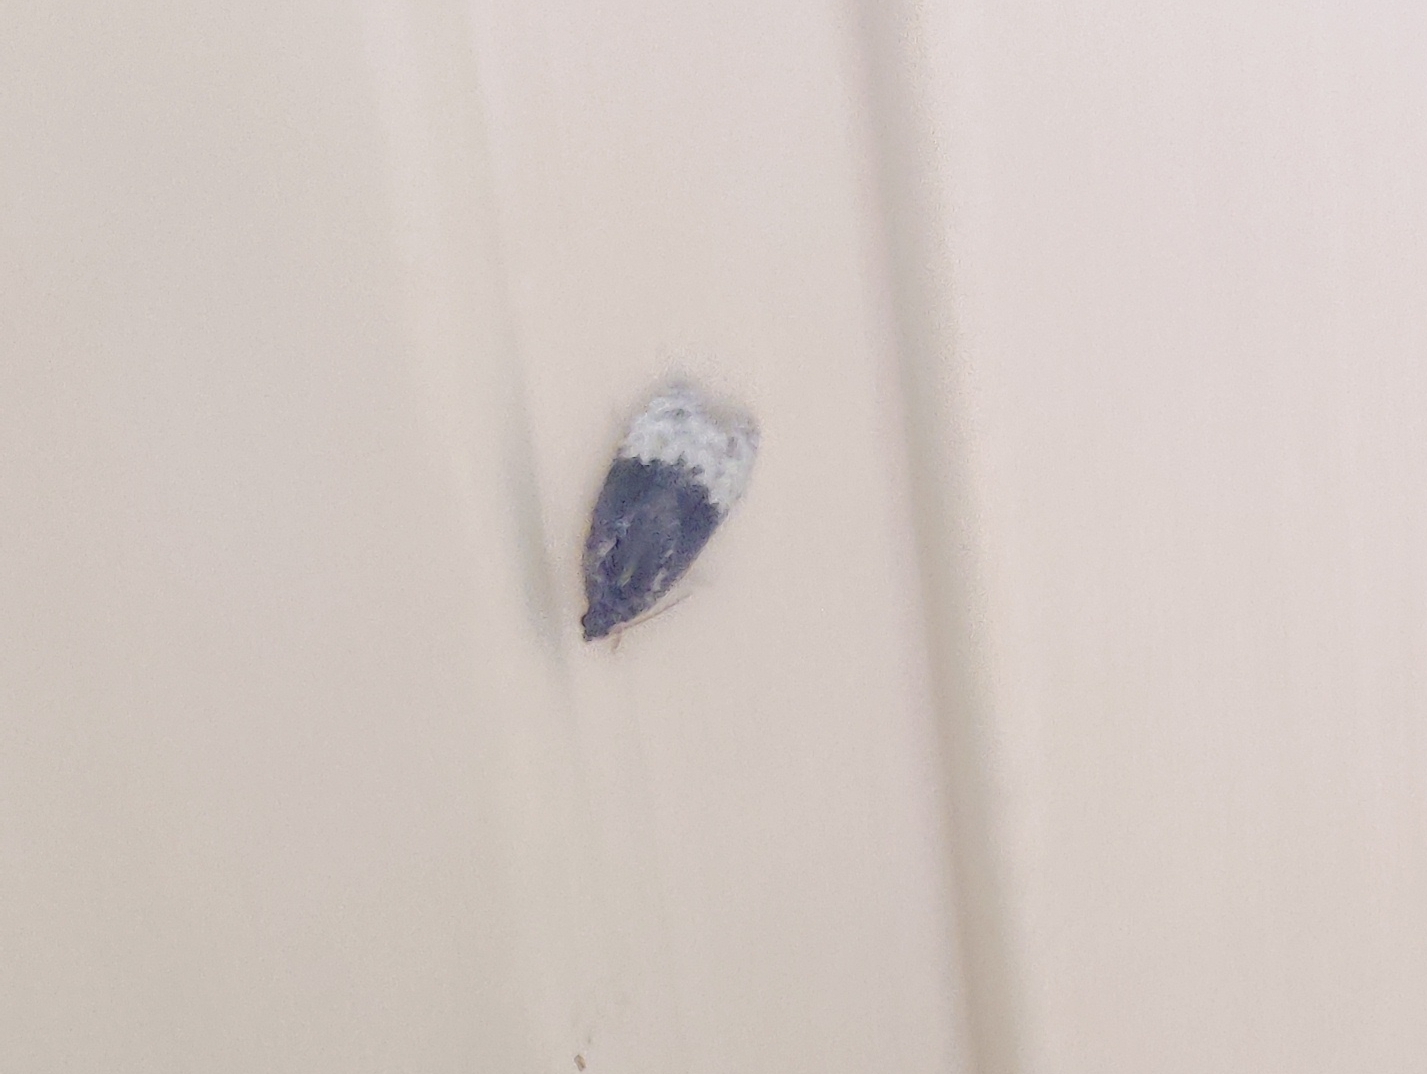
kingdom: Animalia
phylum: Arthropoda
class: Insecta
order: Lepidoptera
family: Tortricidae
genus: Hedya
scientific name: Hedya pruniana
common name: Plum tortrix
